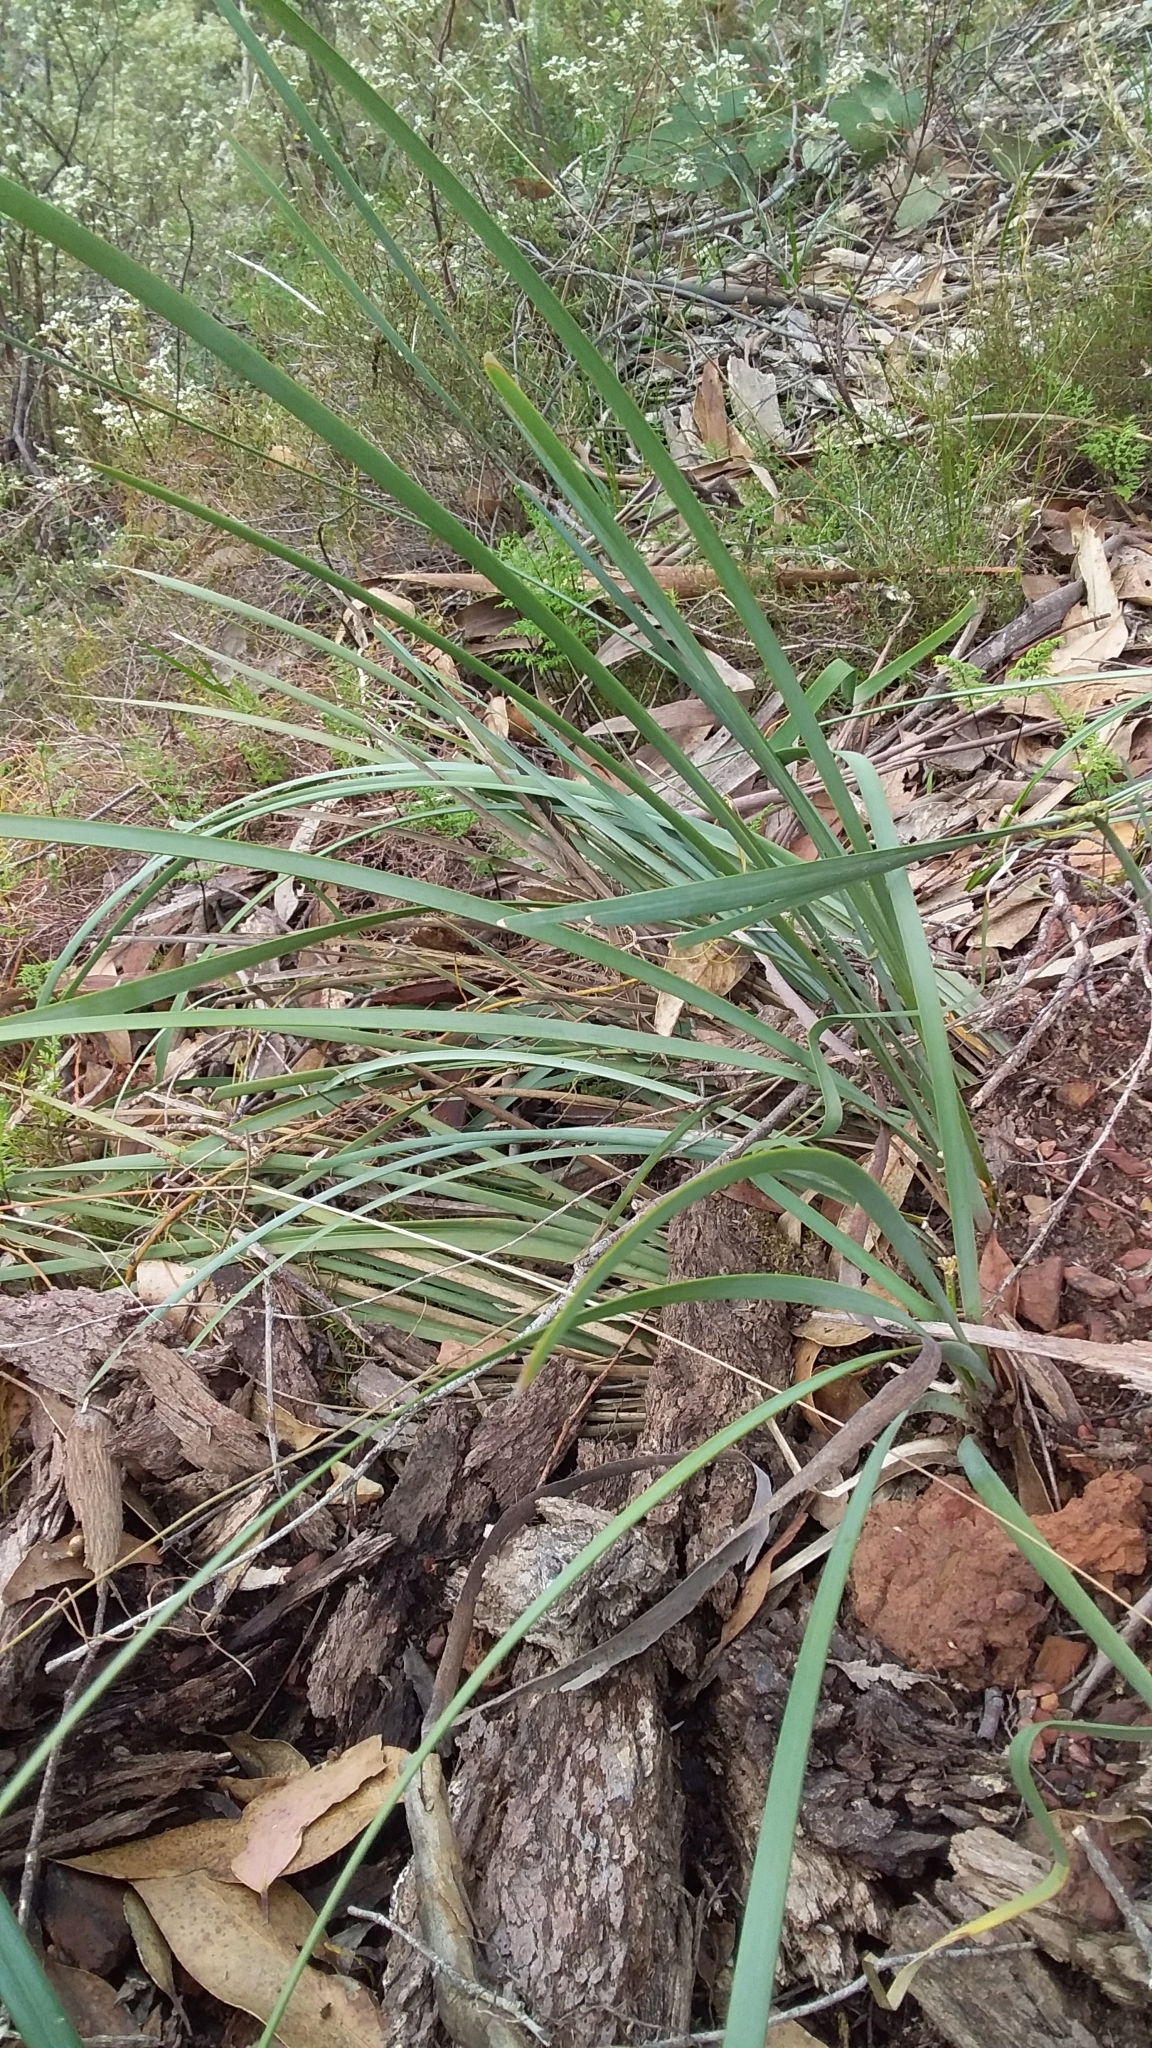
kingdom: Plantae
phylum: Tracheophyta
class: Liliopsida
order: Asparagales
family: Asparagaceae
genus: Lomandra
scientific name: Lomandra multiflora
